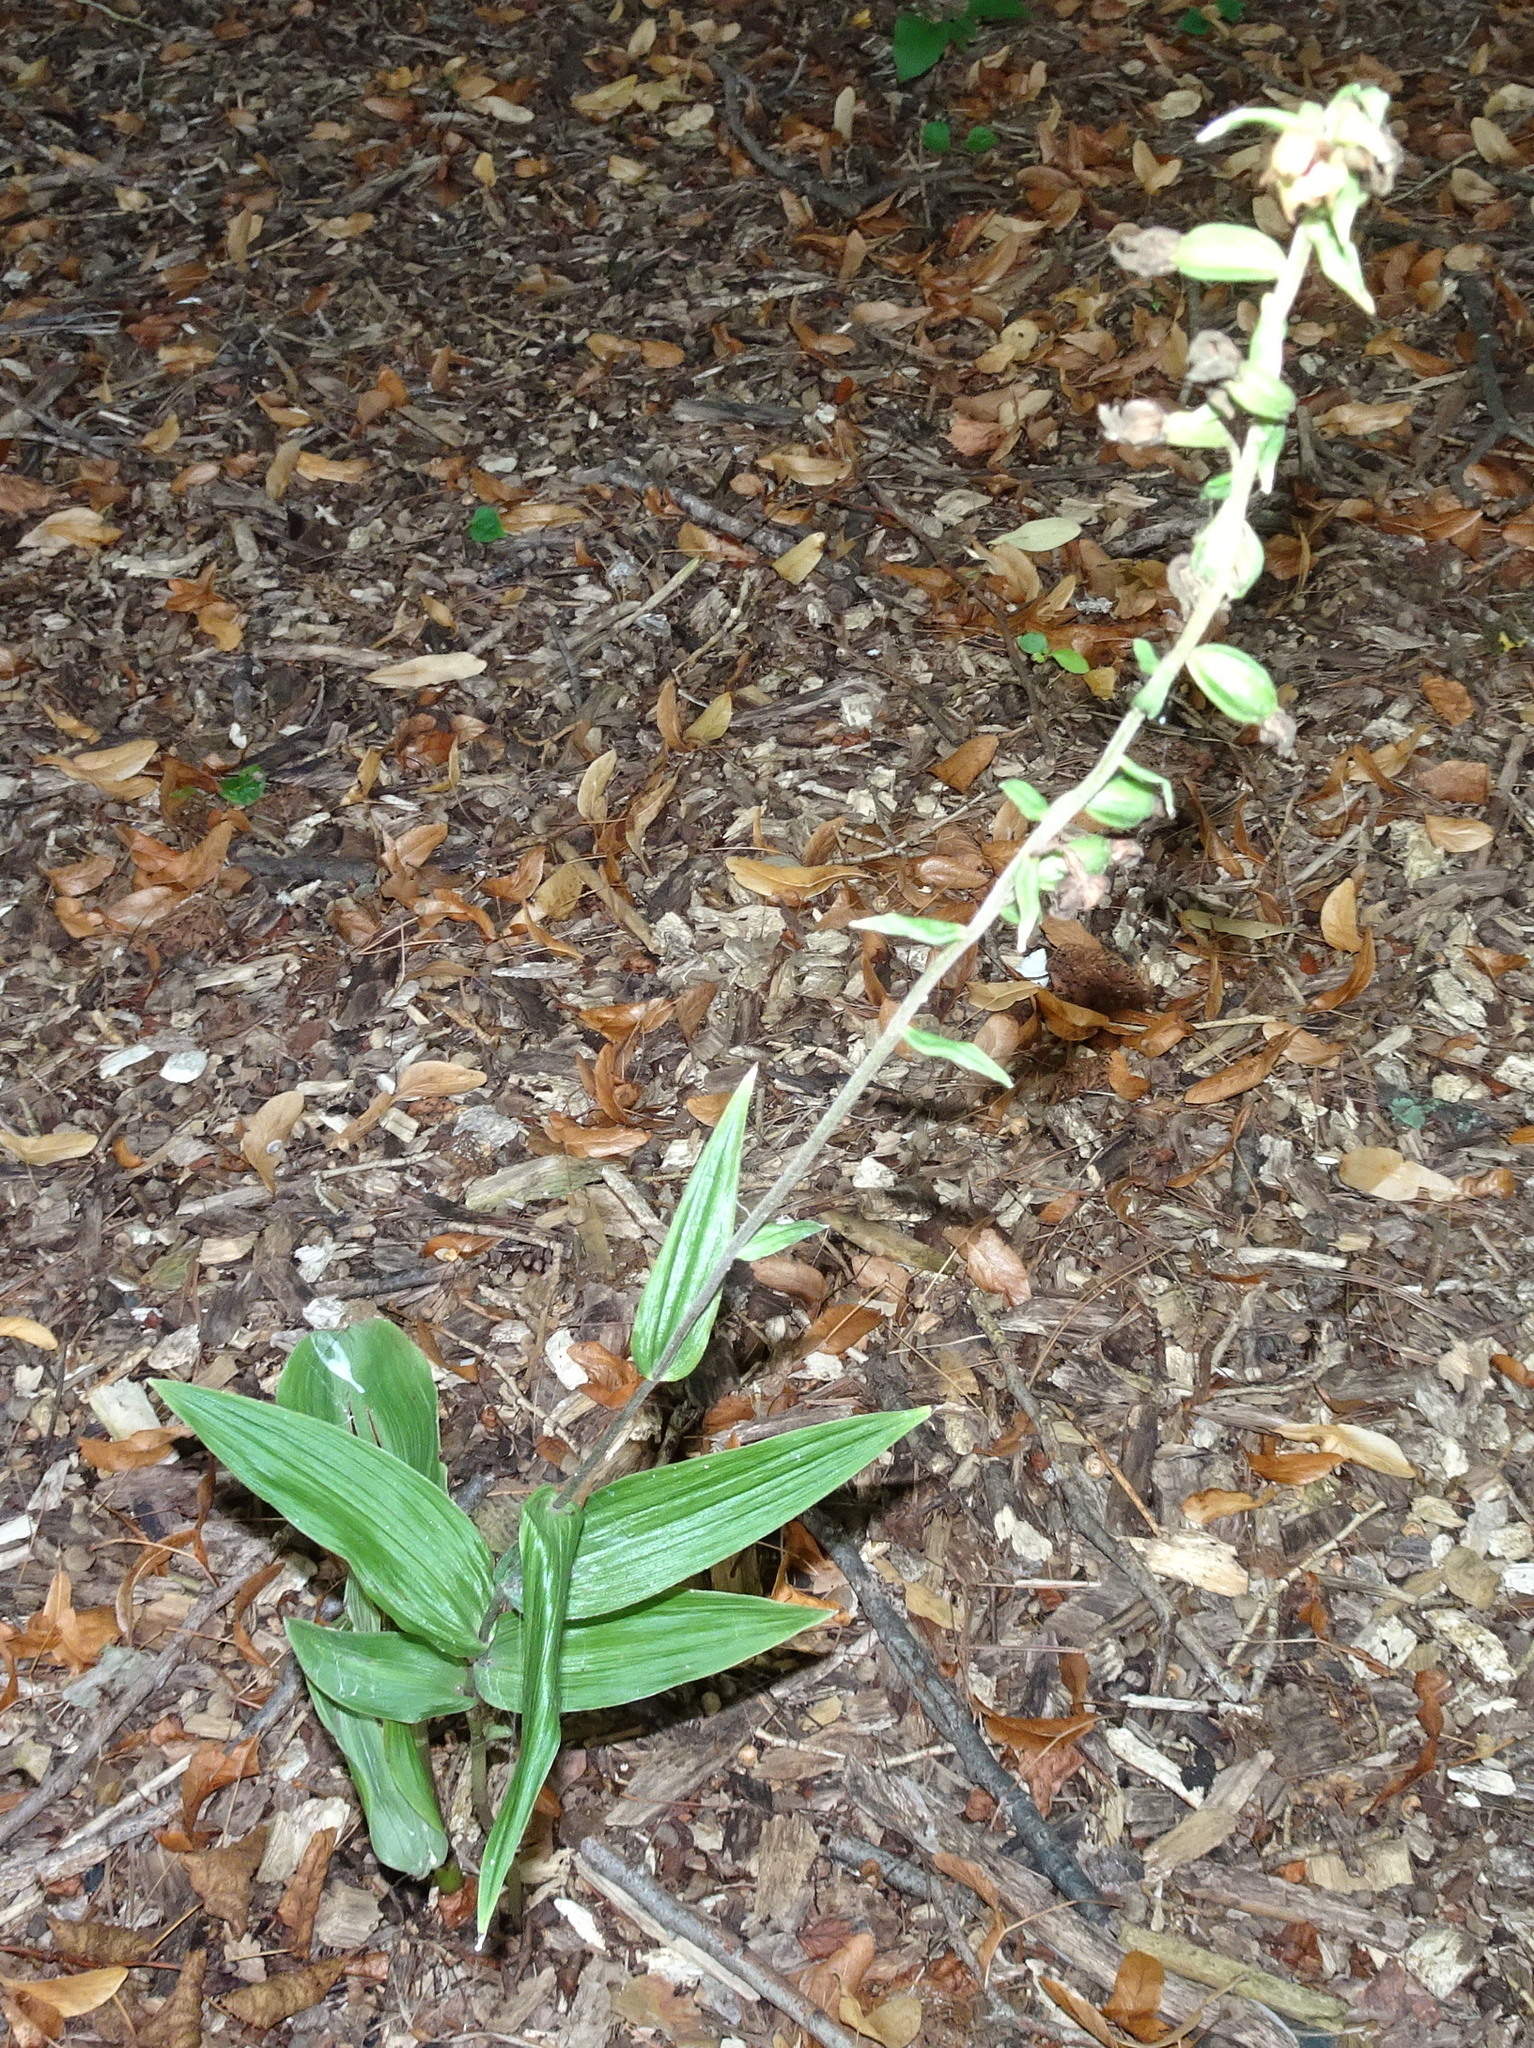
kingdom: Plantae
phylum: Tracheophyta
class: Liliopsida
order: Asparagales
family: Orchidaceae
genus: Epipactis
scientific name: Epipactis helleborine
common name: Broad-leaved helleborine
